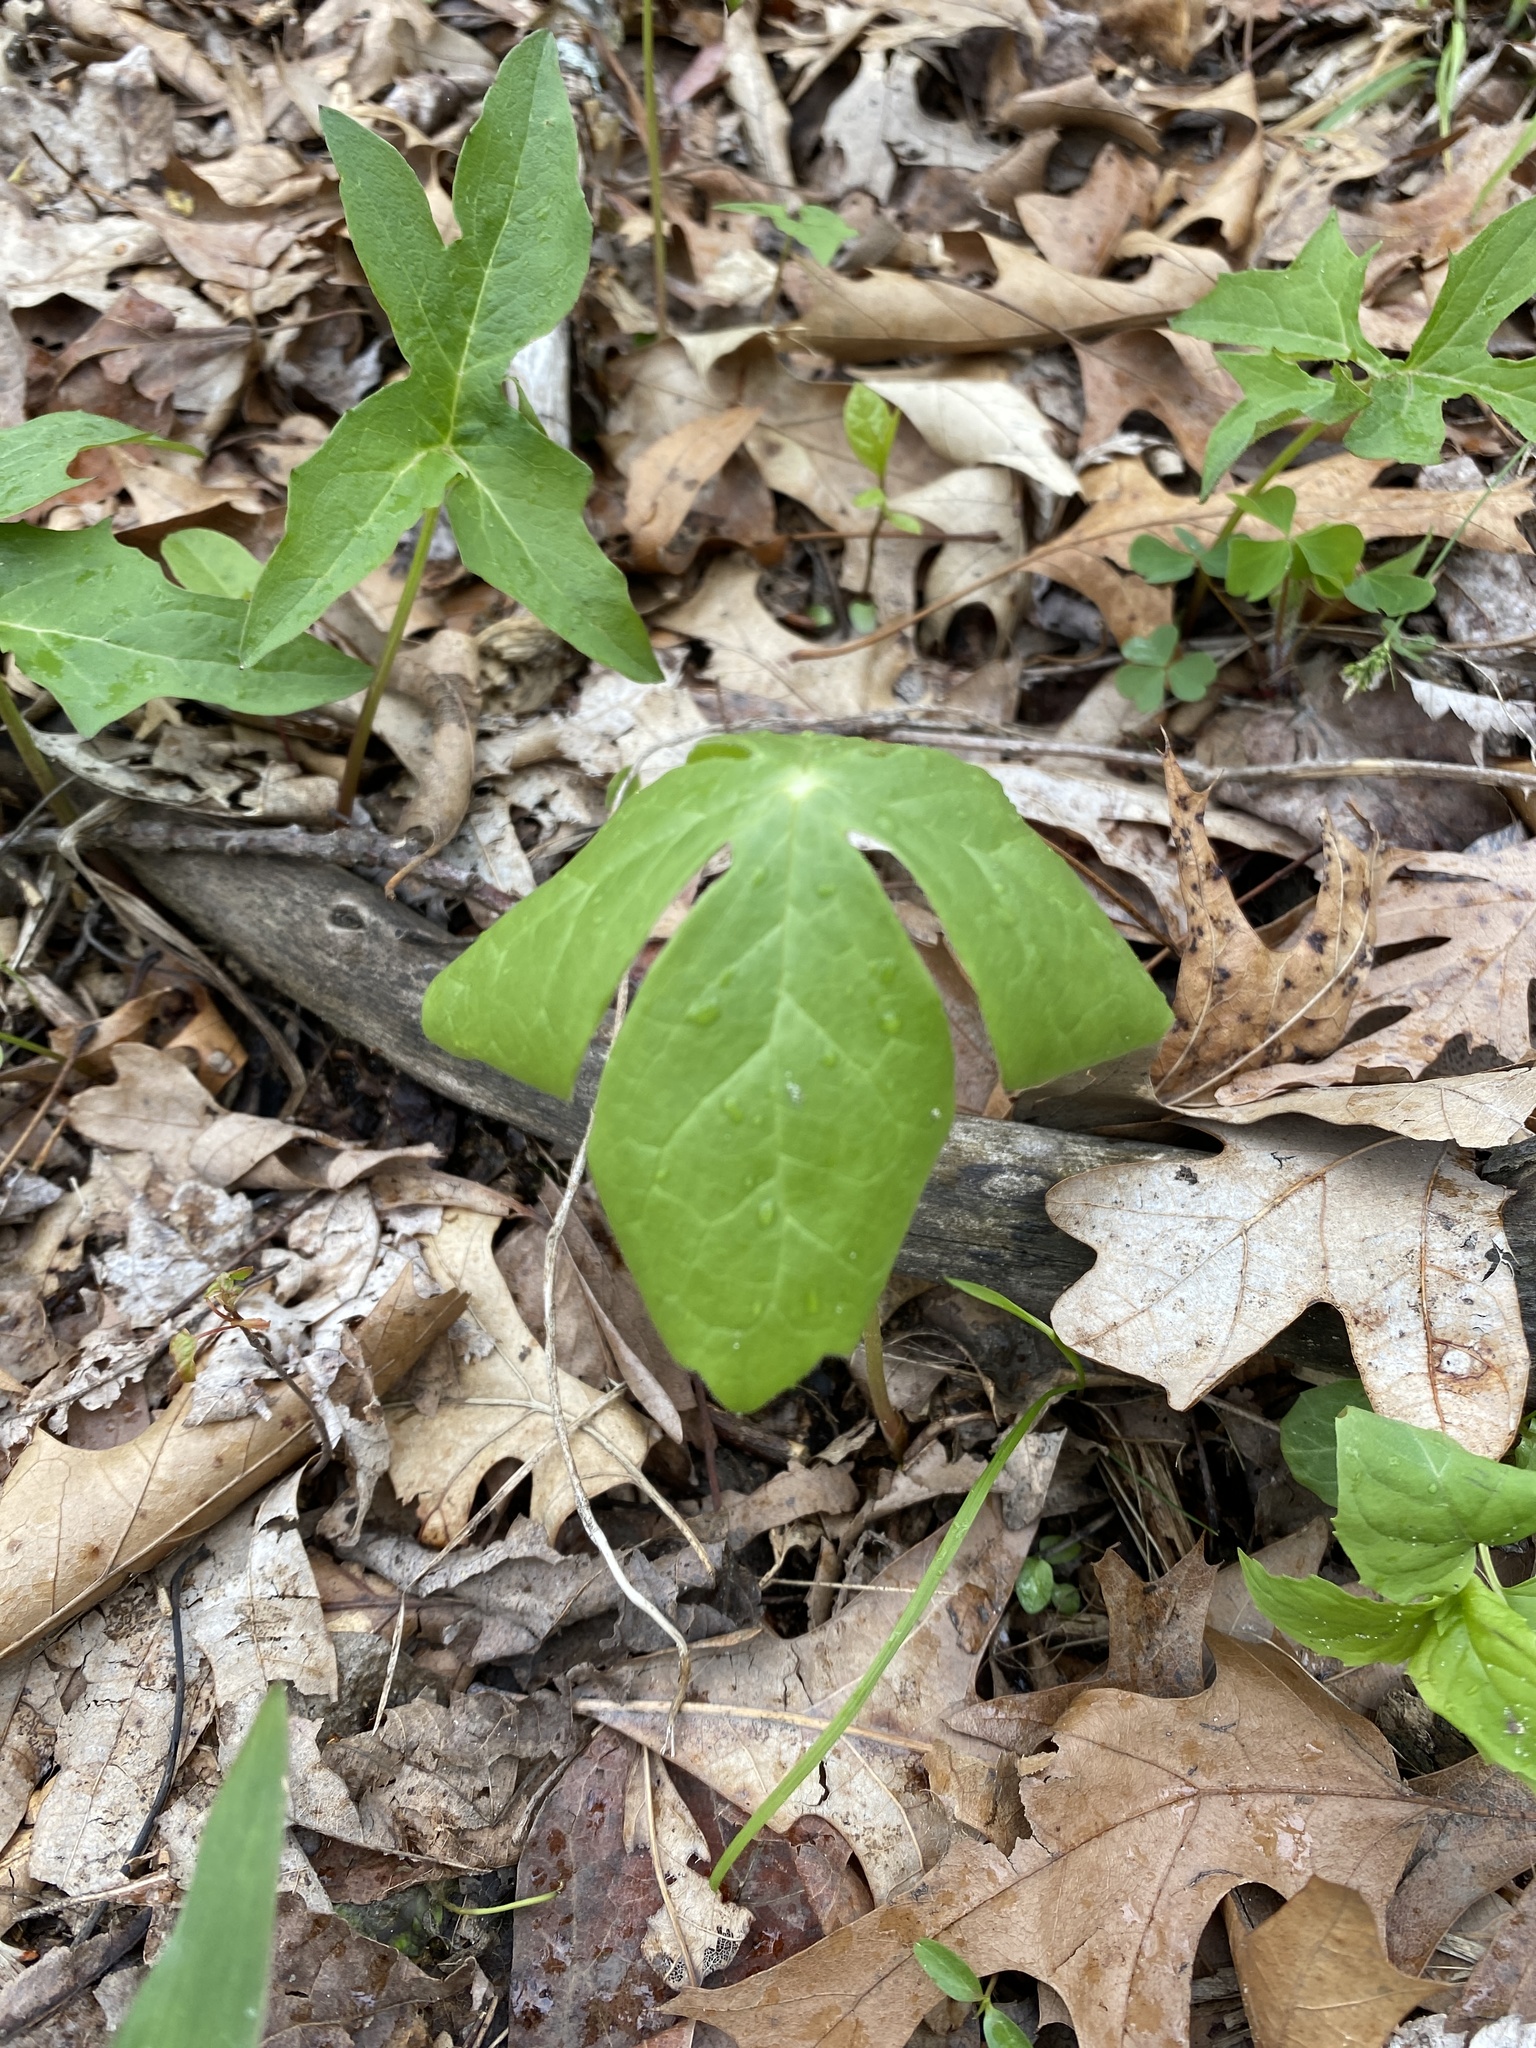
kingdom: Plantae
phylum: Tracheophyta
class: Magnoliopsida
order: Ranunculales
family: Berberidaceae
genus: Podophyllum
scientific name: Podophyllum peltatum
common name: Wild mandrake
